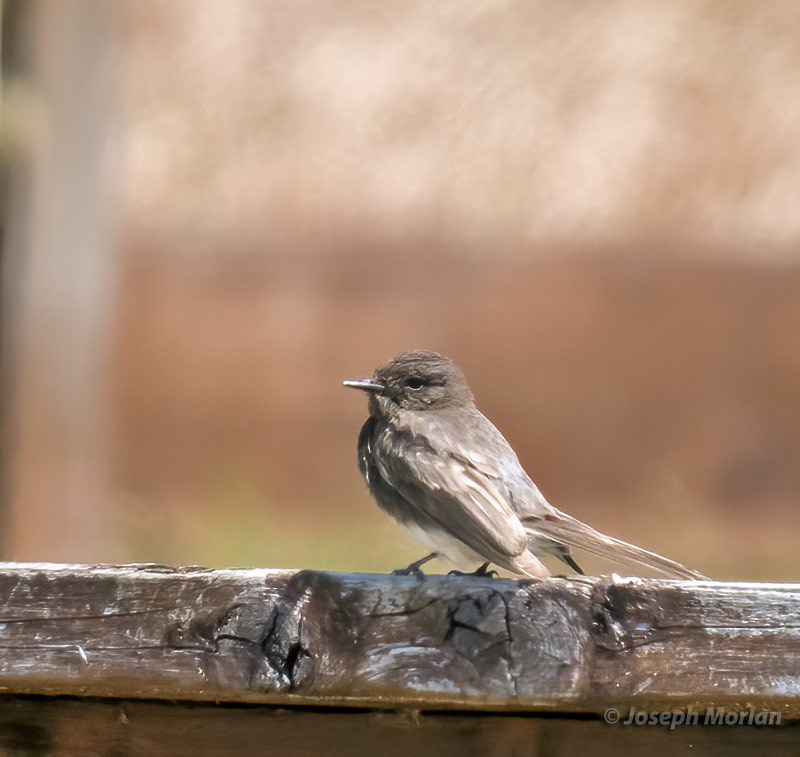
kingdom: Animalia
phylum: Chordata
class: Aves
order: Passeriformes
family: Tyrannidae
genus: Sayornis
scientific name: Sayornis nigricans
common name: Black phoebe
